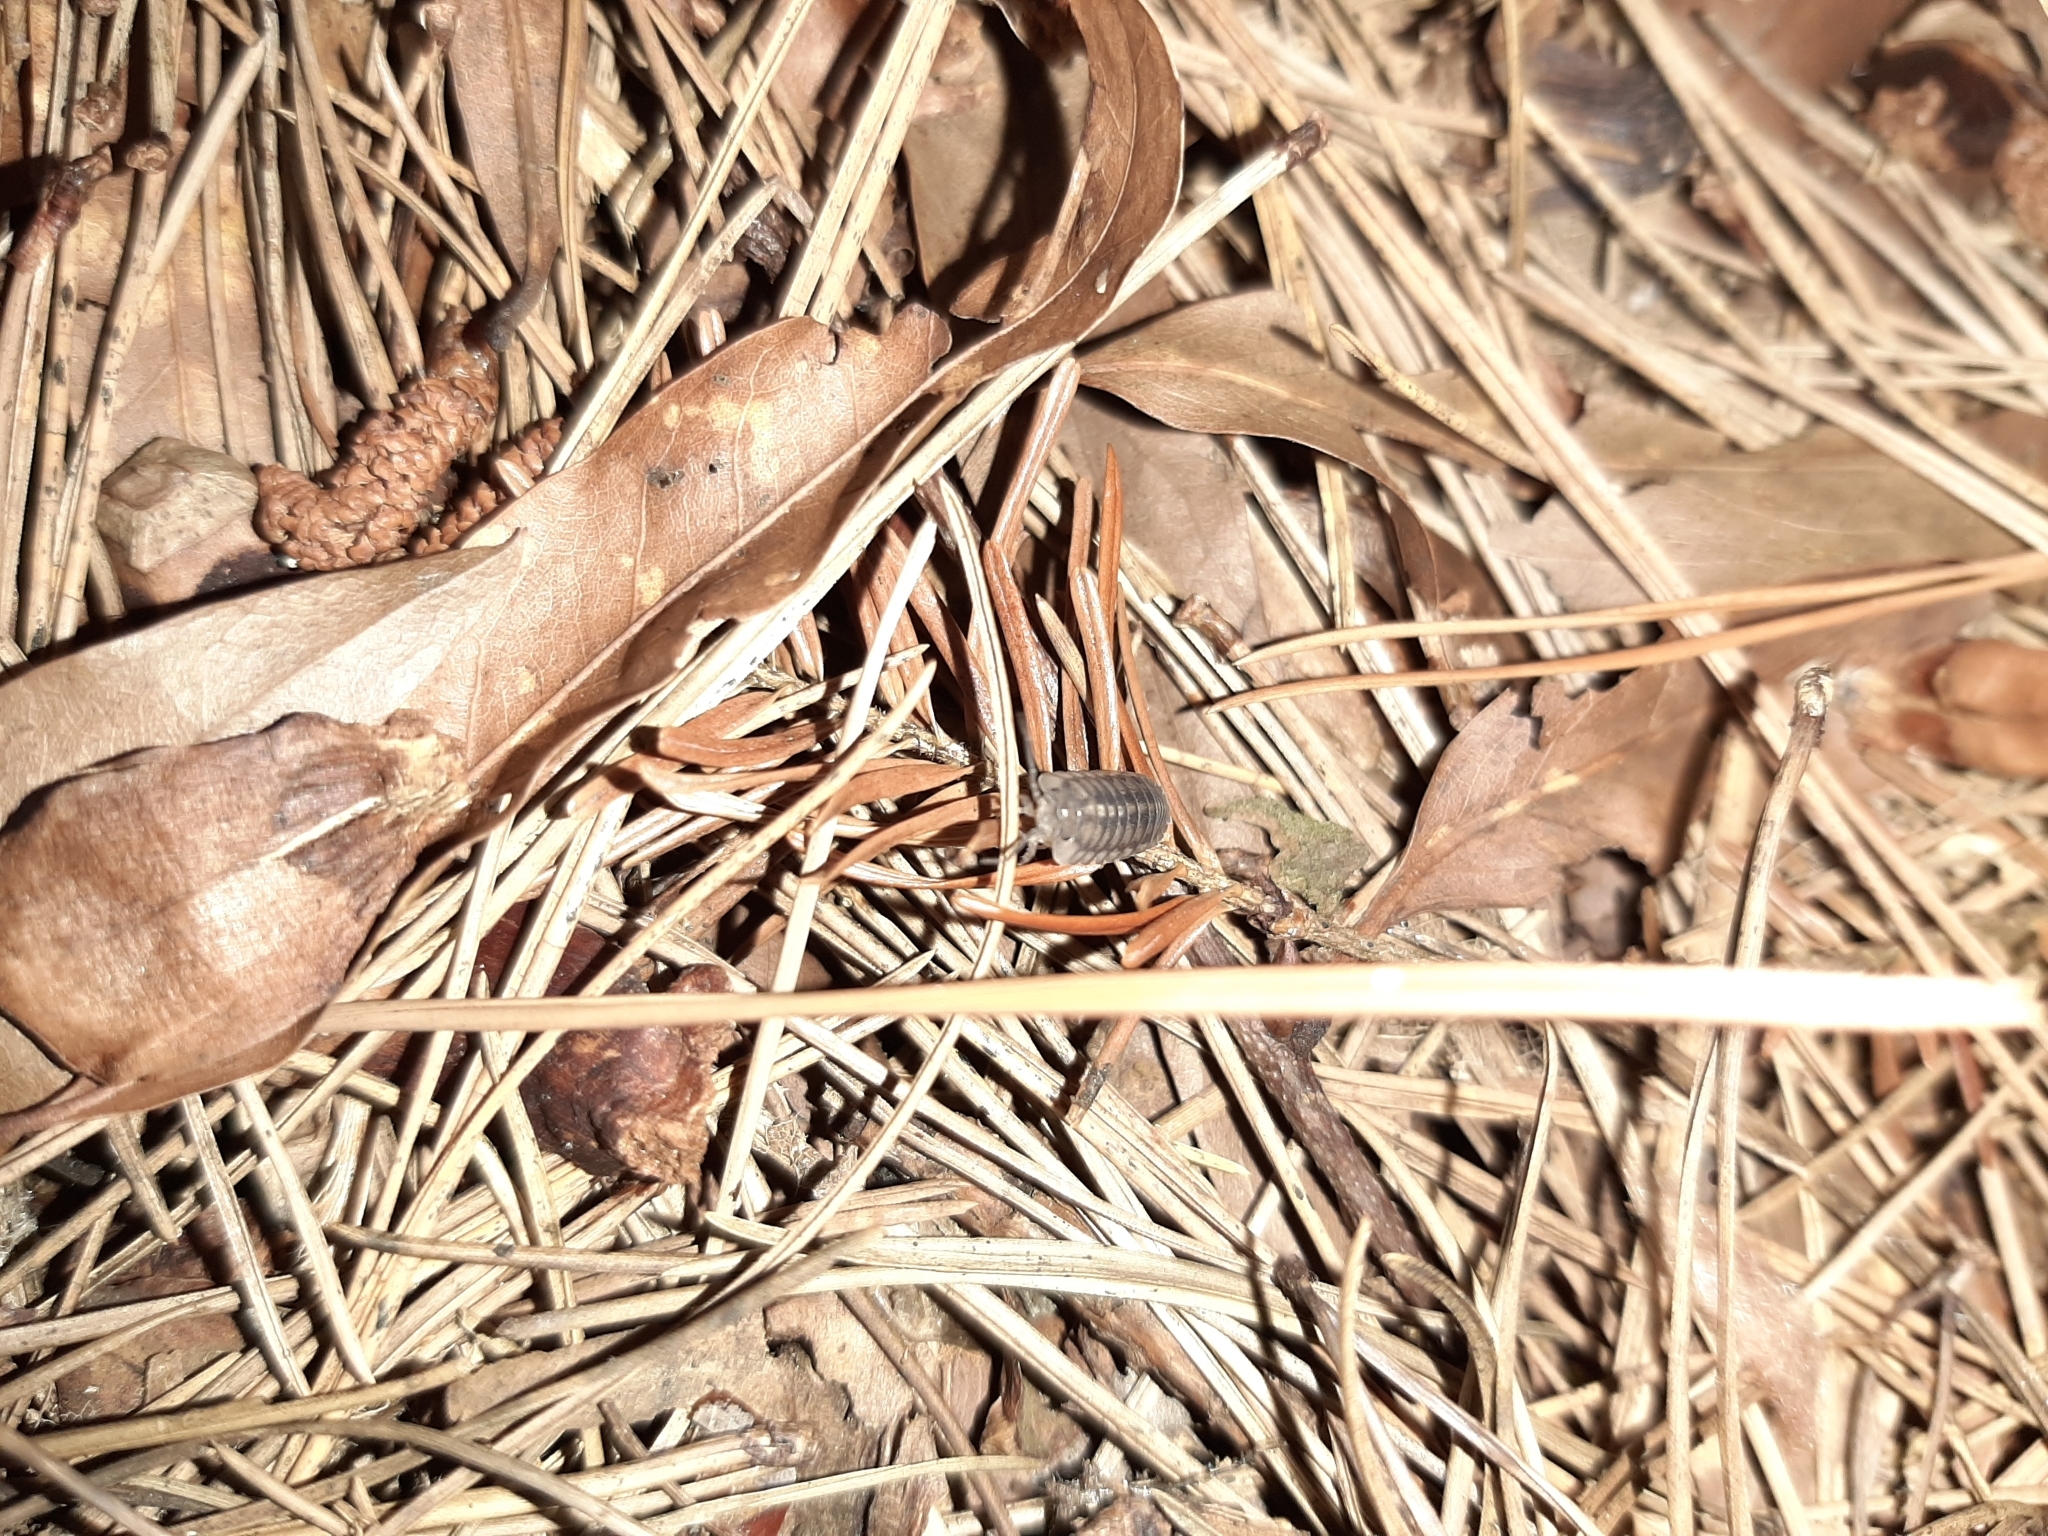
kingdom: Animalia
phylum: Arthropoda
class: Malacostraca
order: Isopoda
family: Armadillidiidae
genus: Armadillidium
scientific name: Armadillidium nasatum
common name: Isopod
